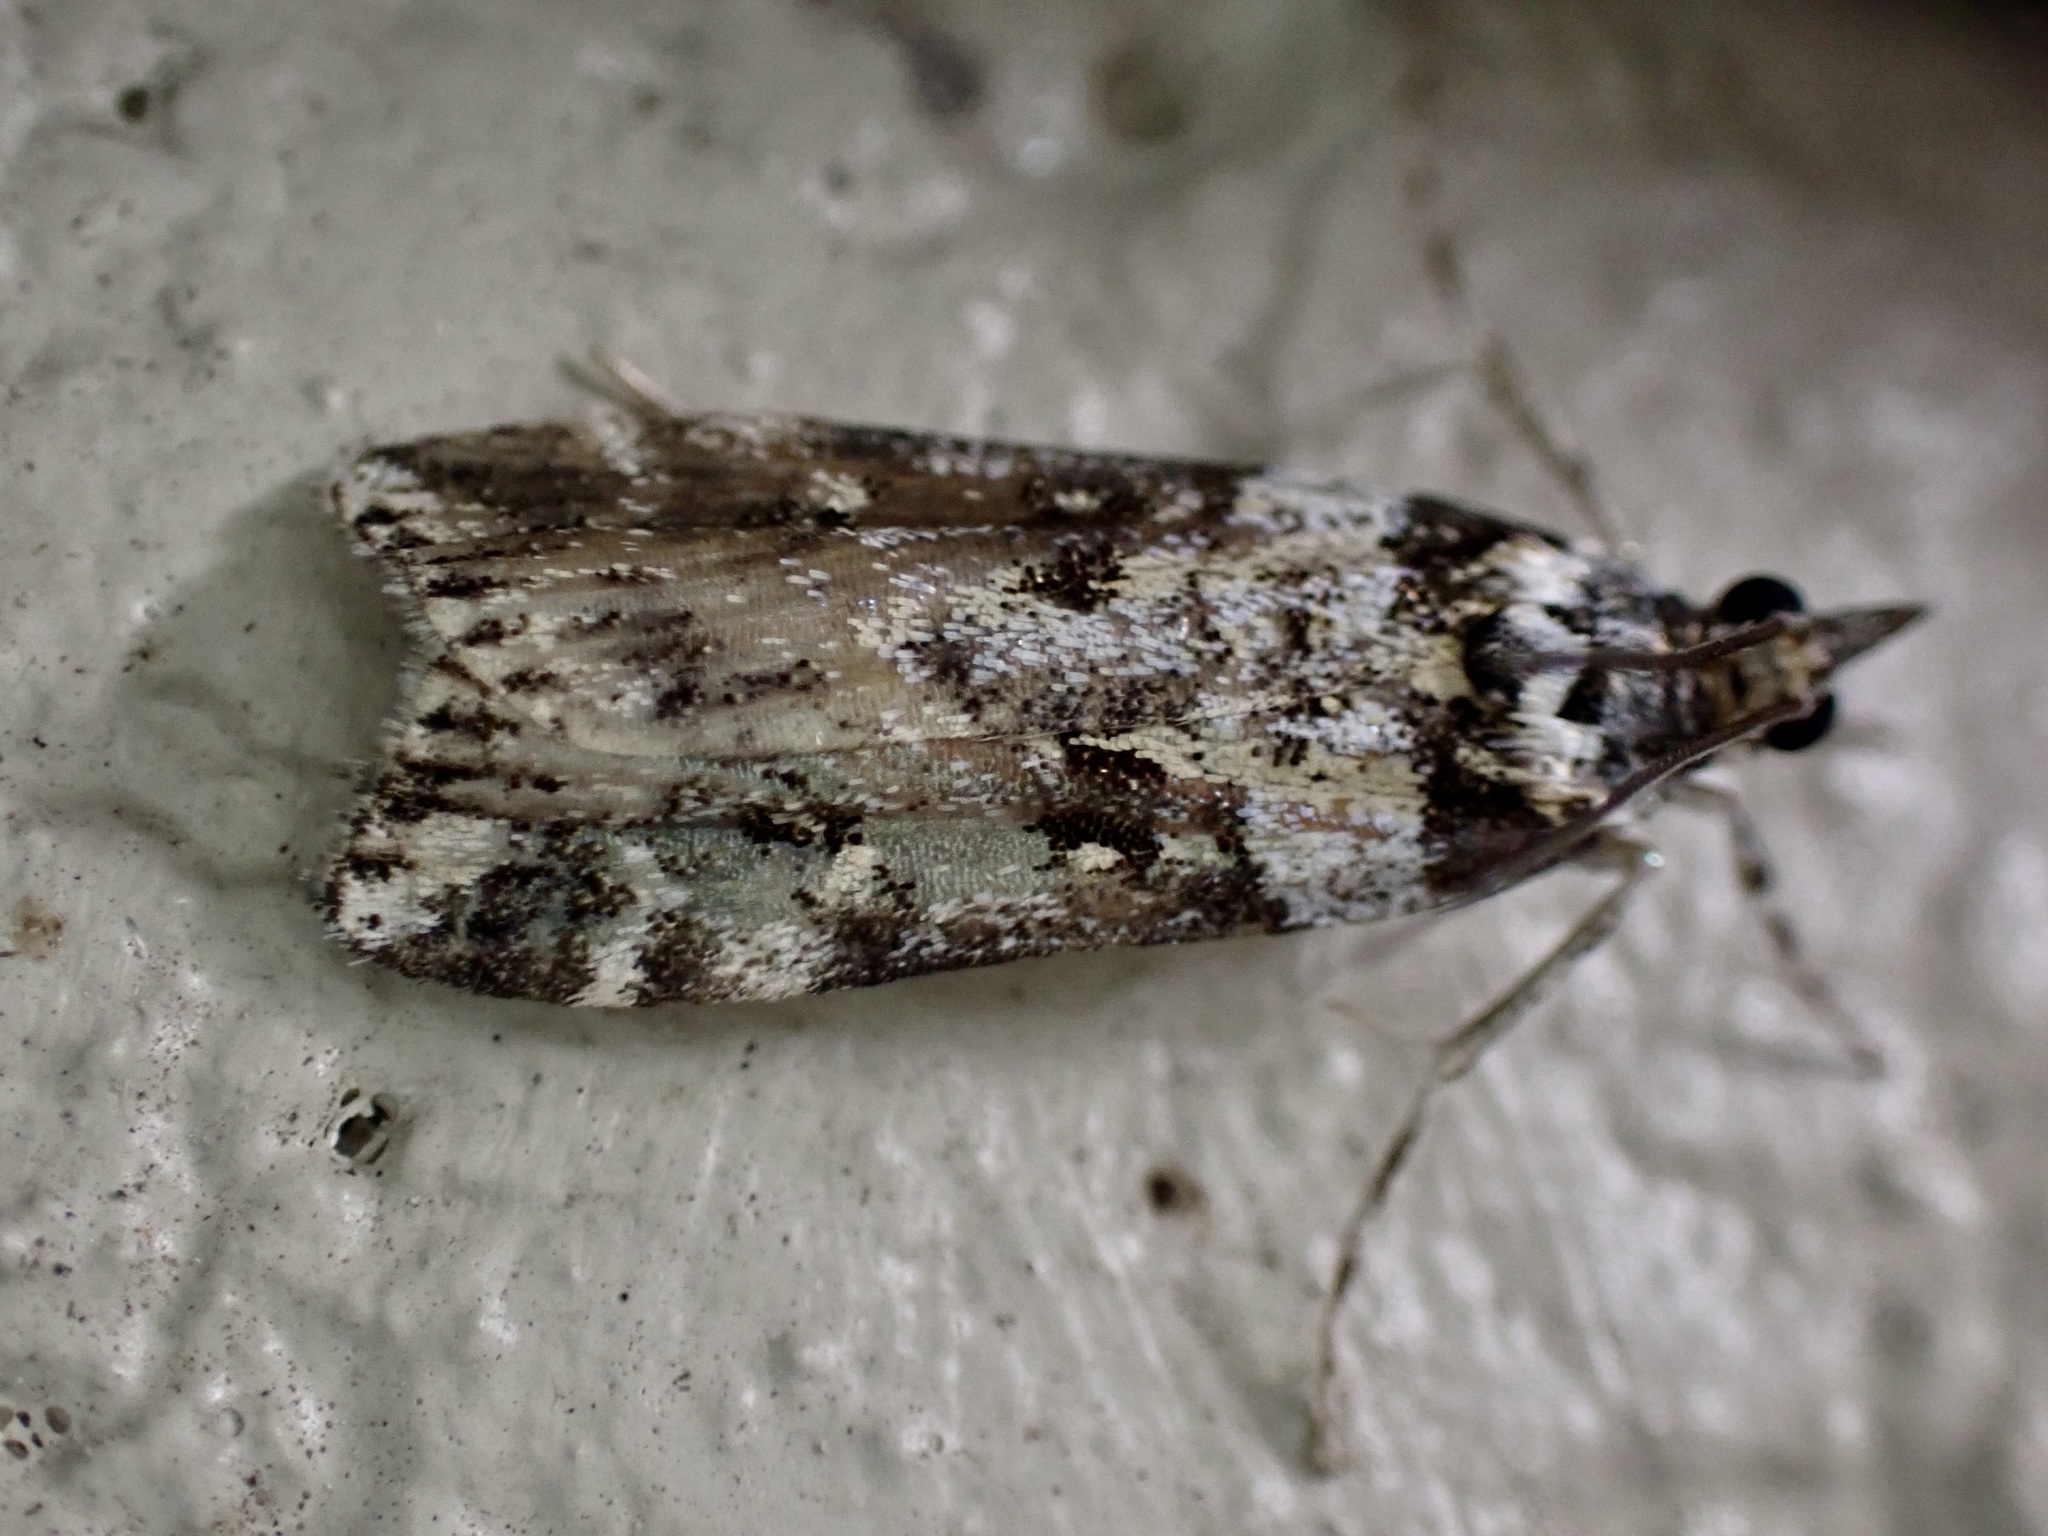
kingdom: Animalia
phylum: Arthropoda
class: Insecta
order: Lepidoptera
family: Crambidae
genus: Eudonia
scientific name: Eudonia diphtheralis
